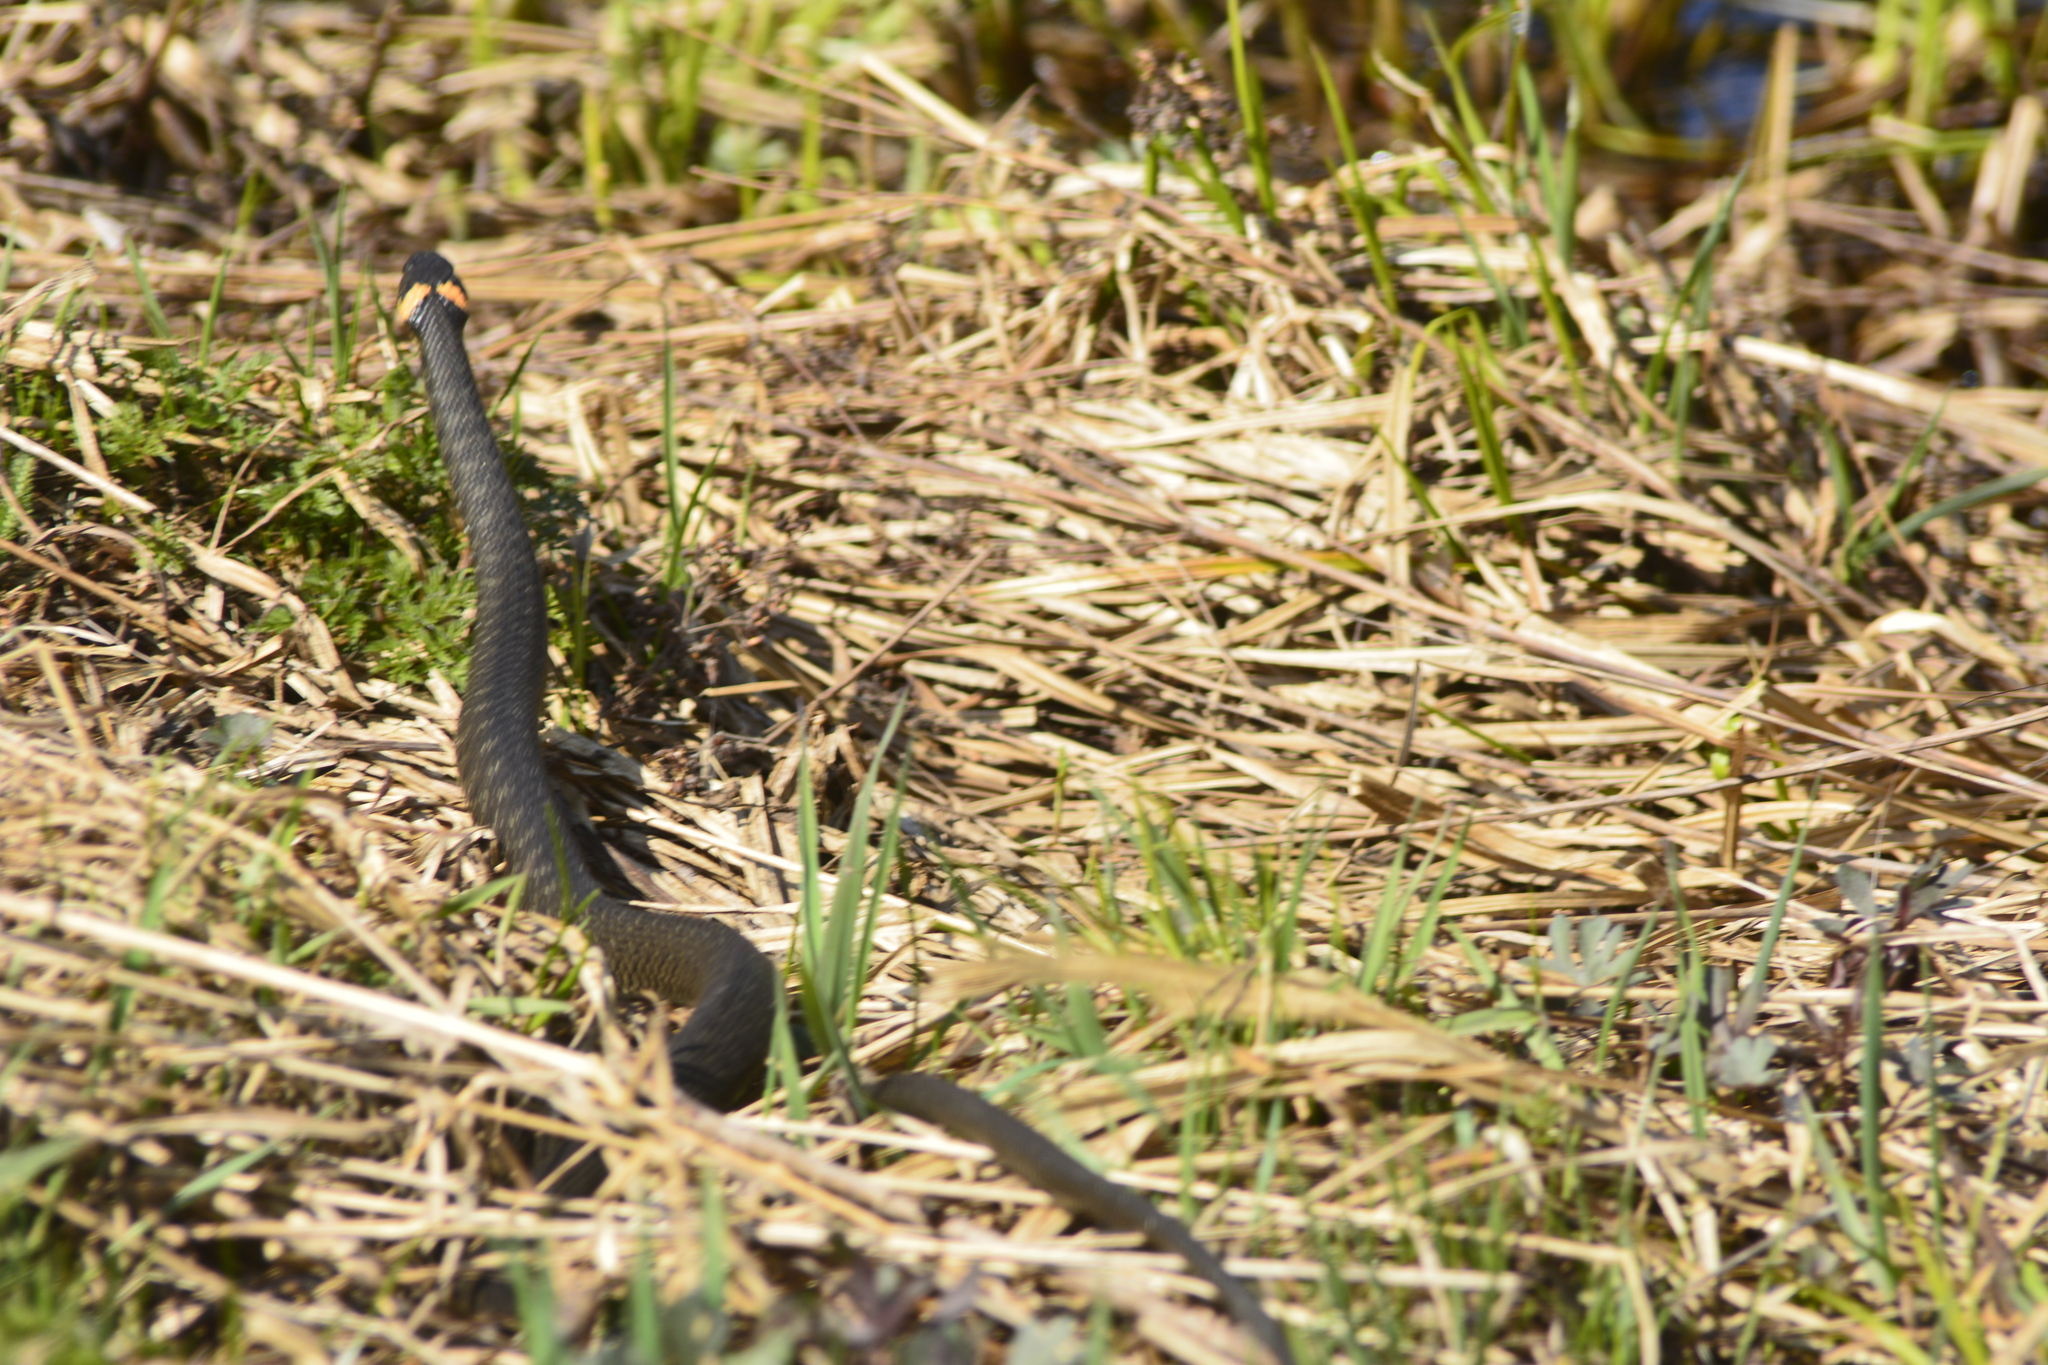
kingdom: Animalia
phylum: Chordata
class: Squamata
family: Colubridae
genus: Natrix
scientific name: Natrix natrix
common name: Grass snake
